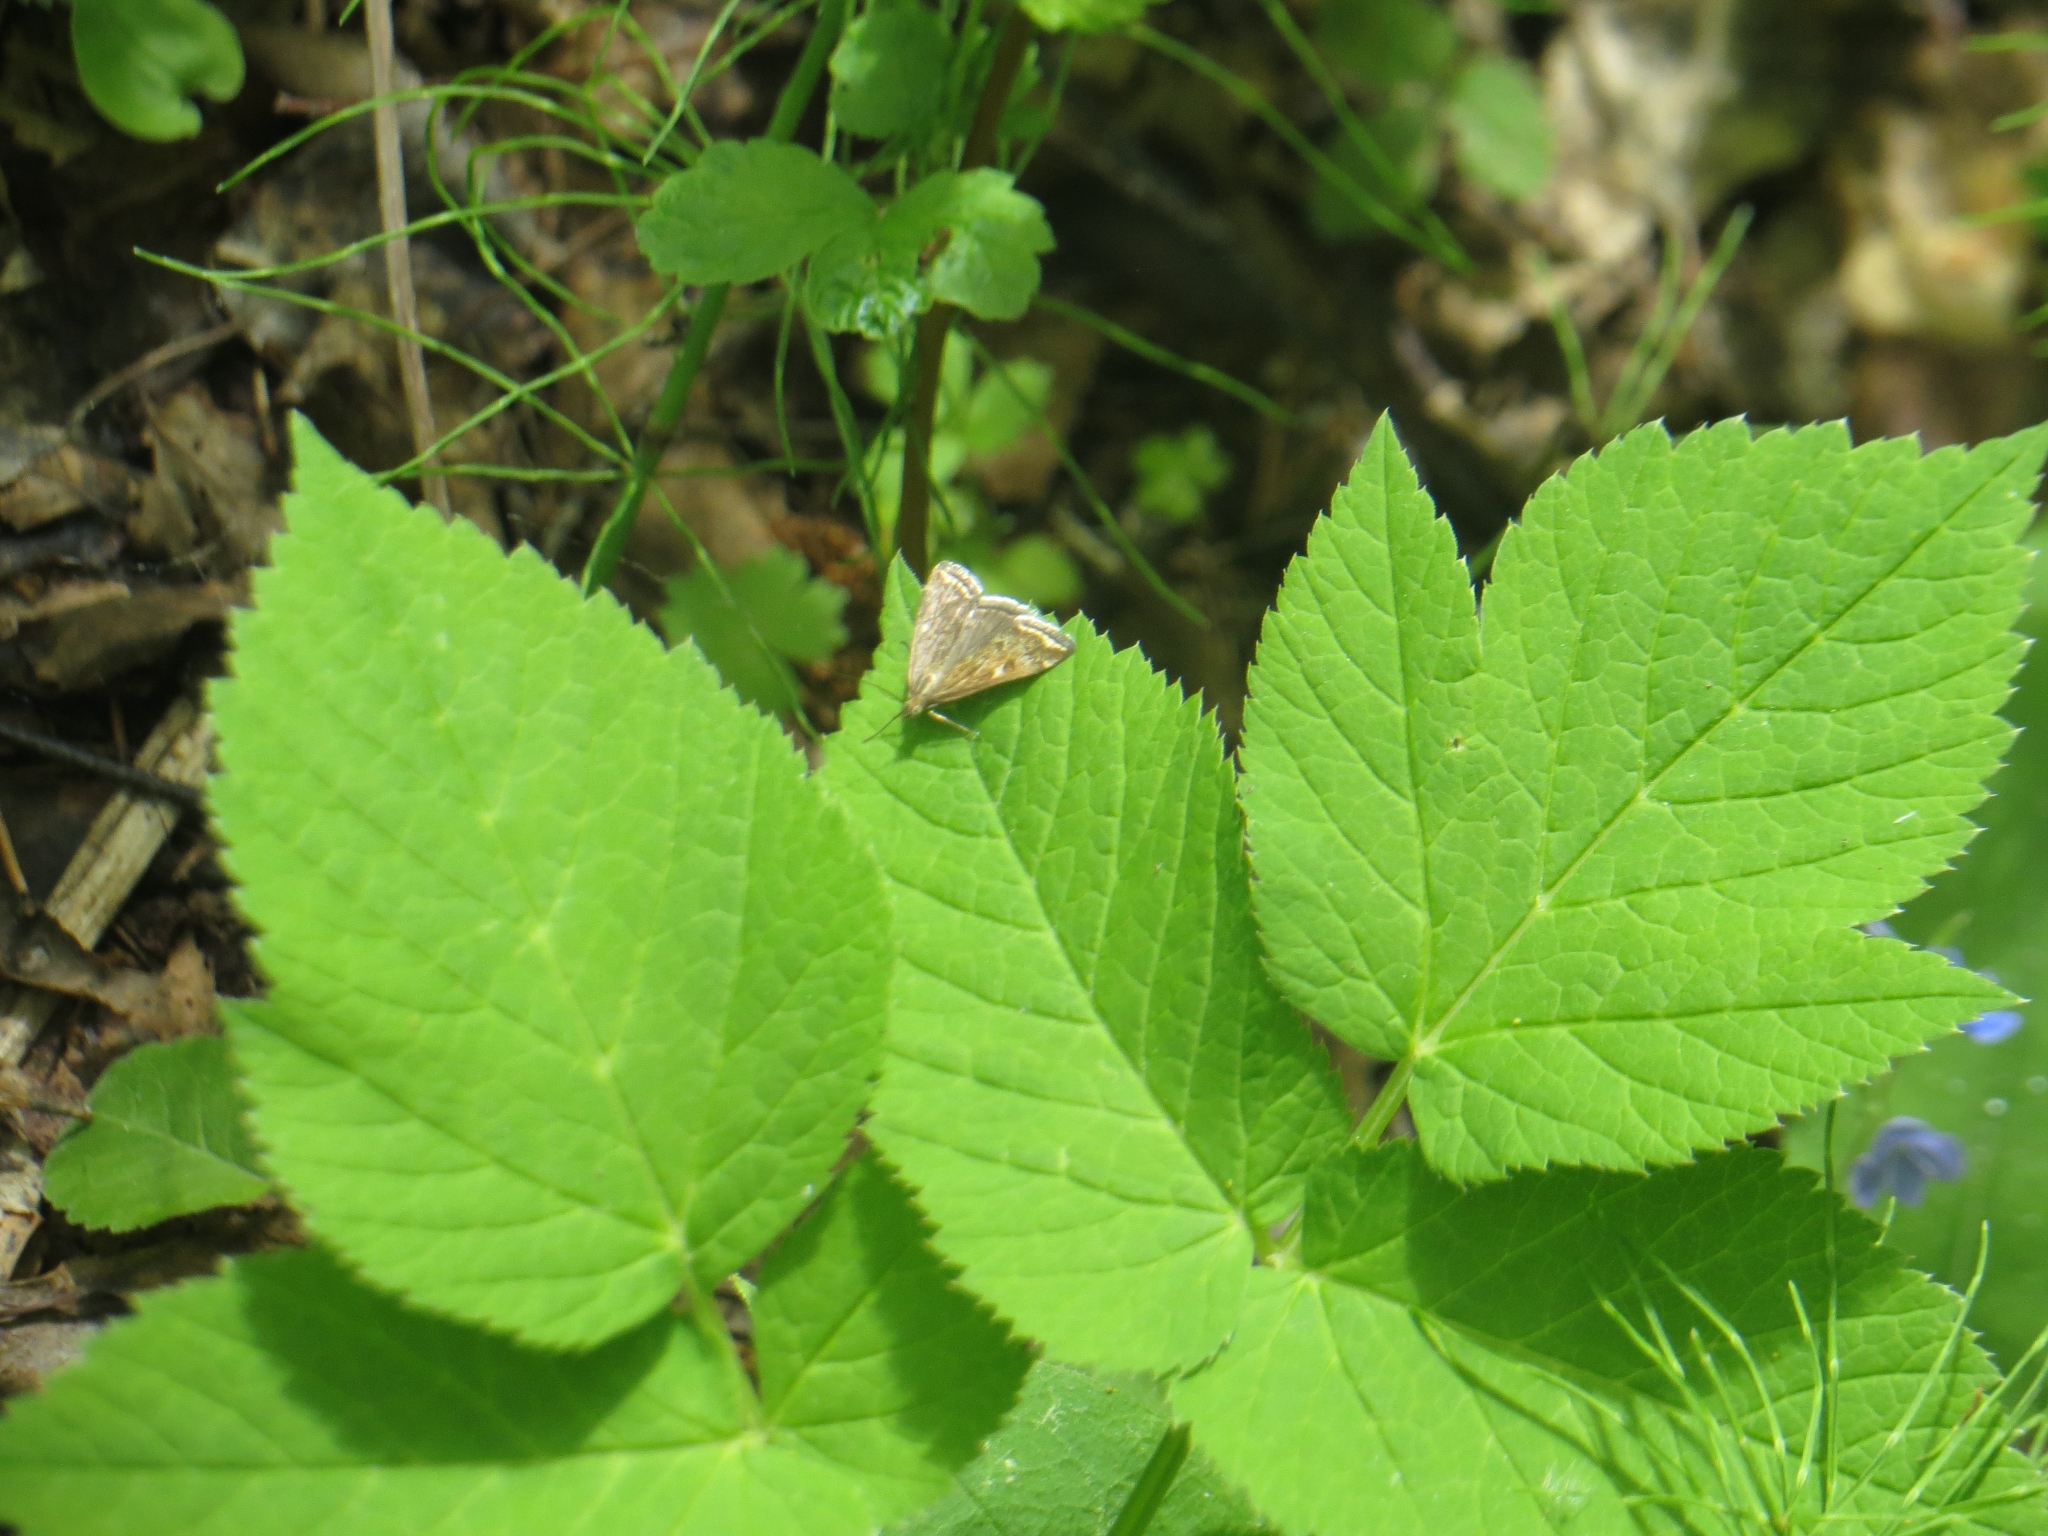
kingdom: Animalia
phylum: Arthropoda
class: Insecta
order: Lepidoptera
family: Crambidae
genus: Loxostege
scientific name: Loxostege sticticalis
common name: Crambid moth
